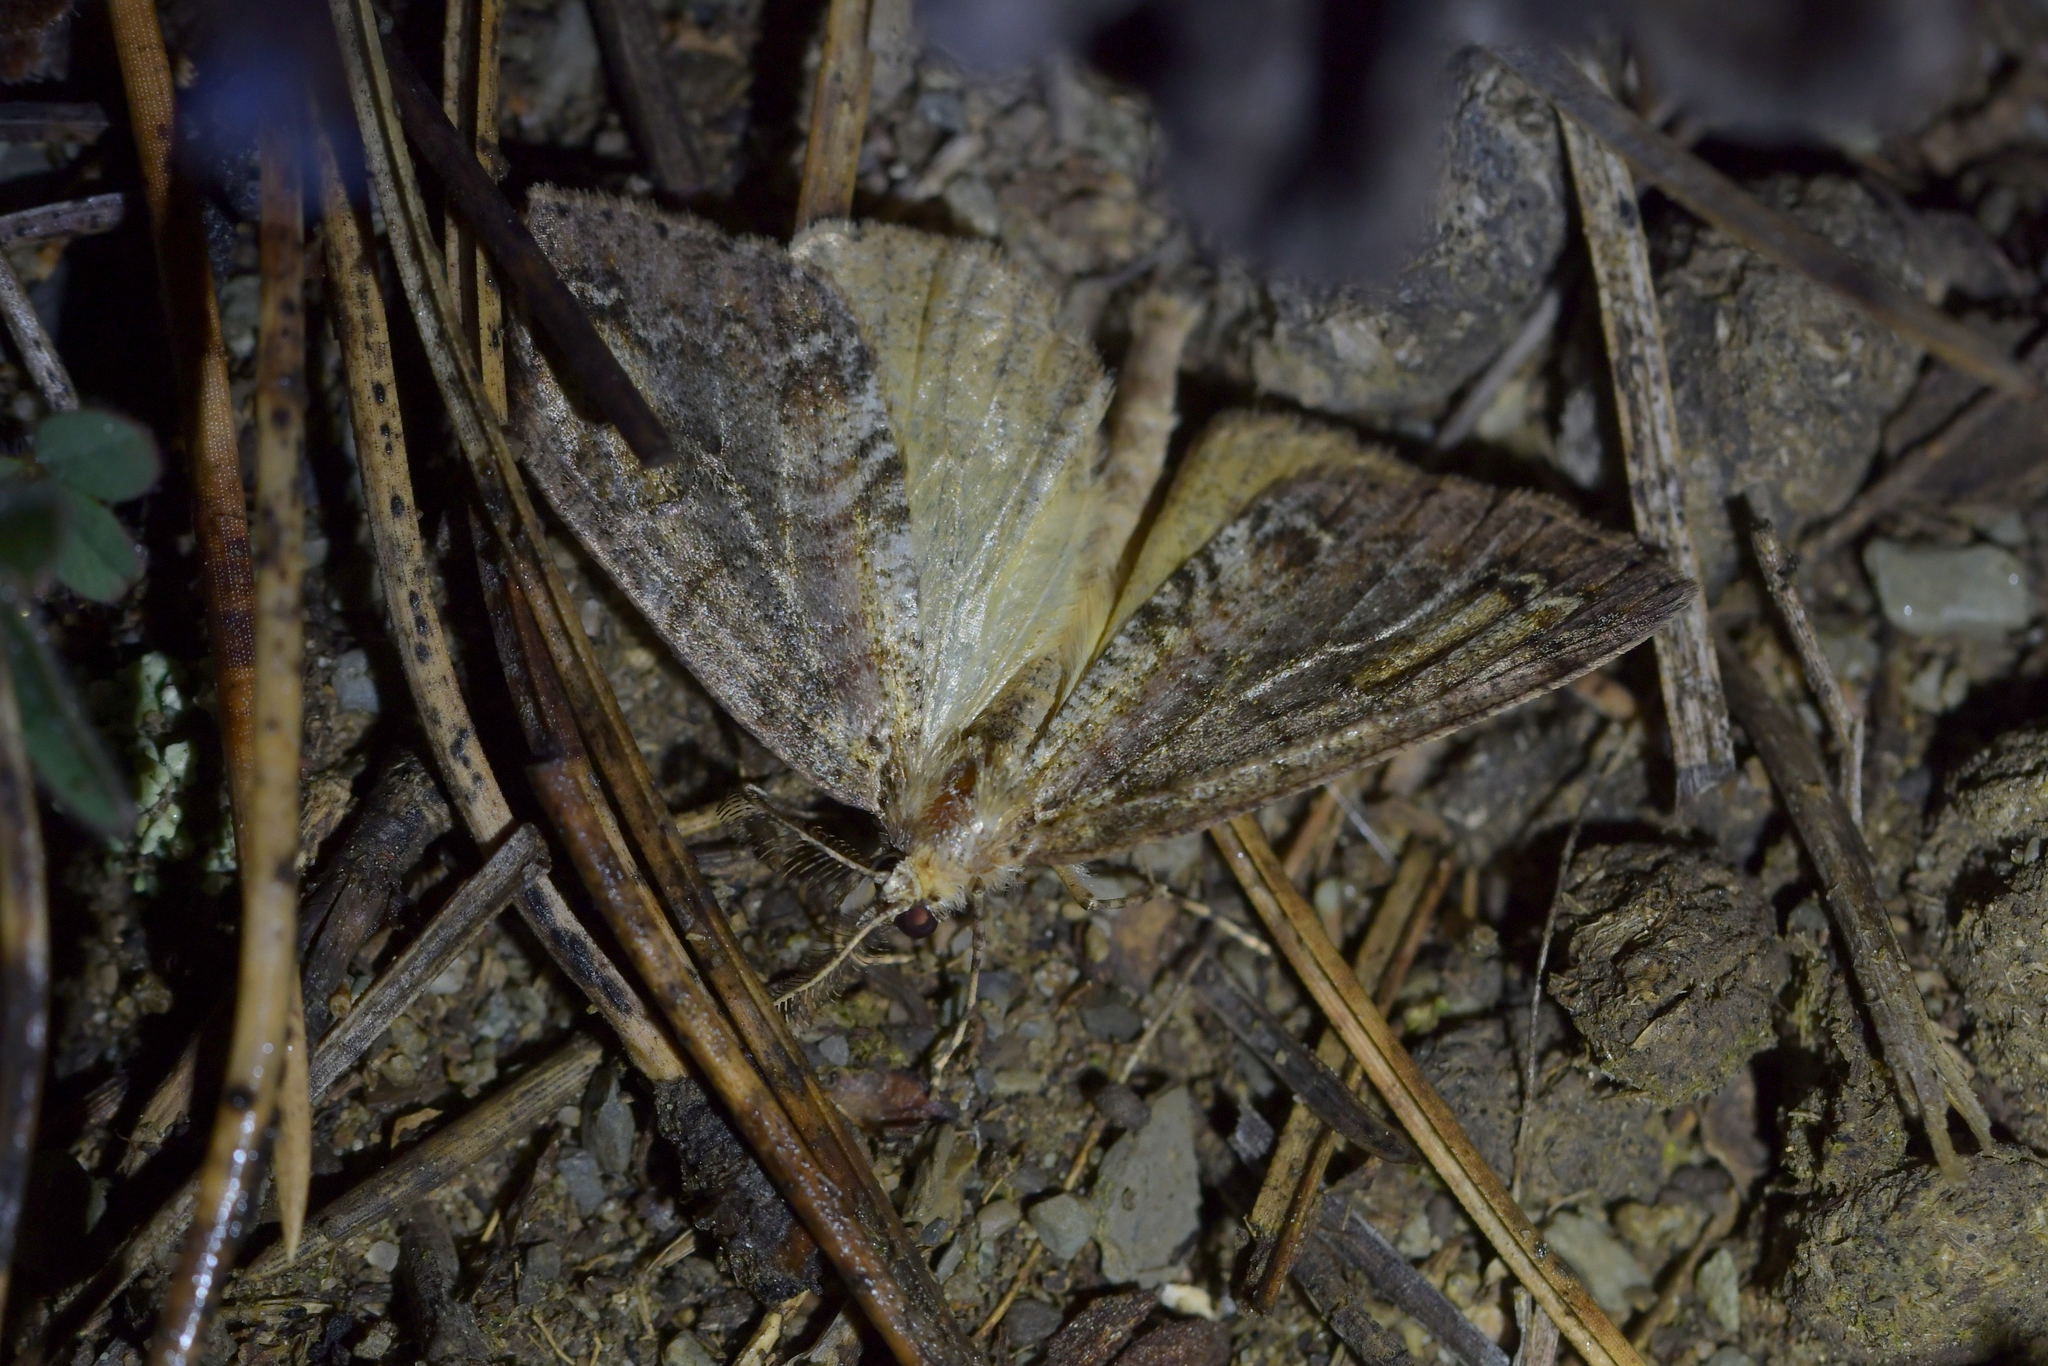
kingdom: Animalia
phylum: Arthropoda
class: Insecta
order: Lepidoptera
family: Geometridae
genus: Pseudocoremia
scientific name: Pseudocoremia suavis
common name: Common forest looper
